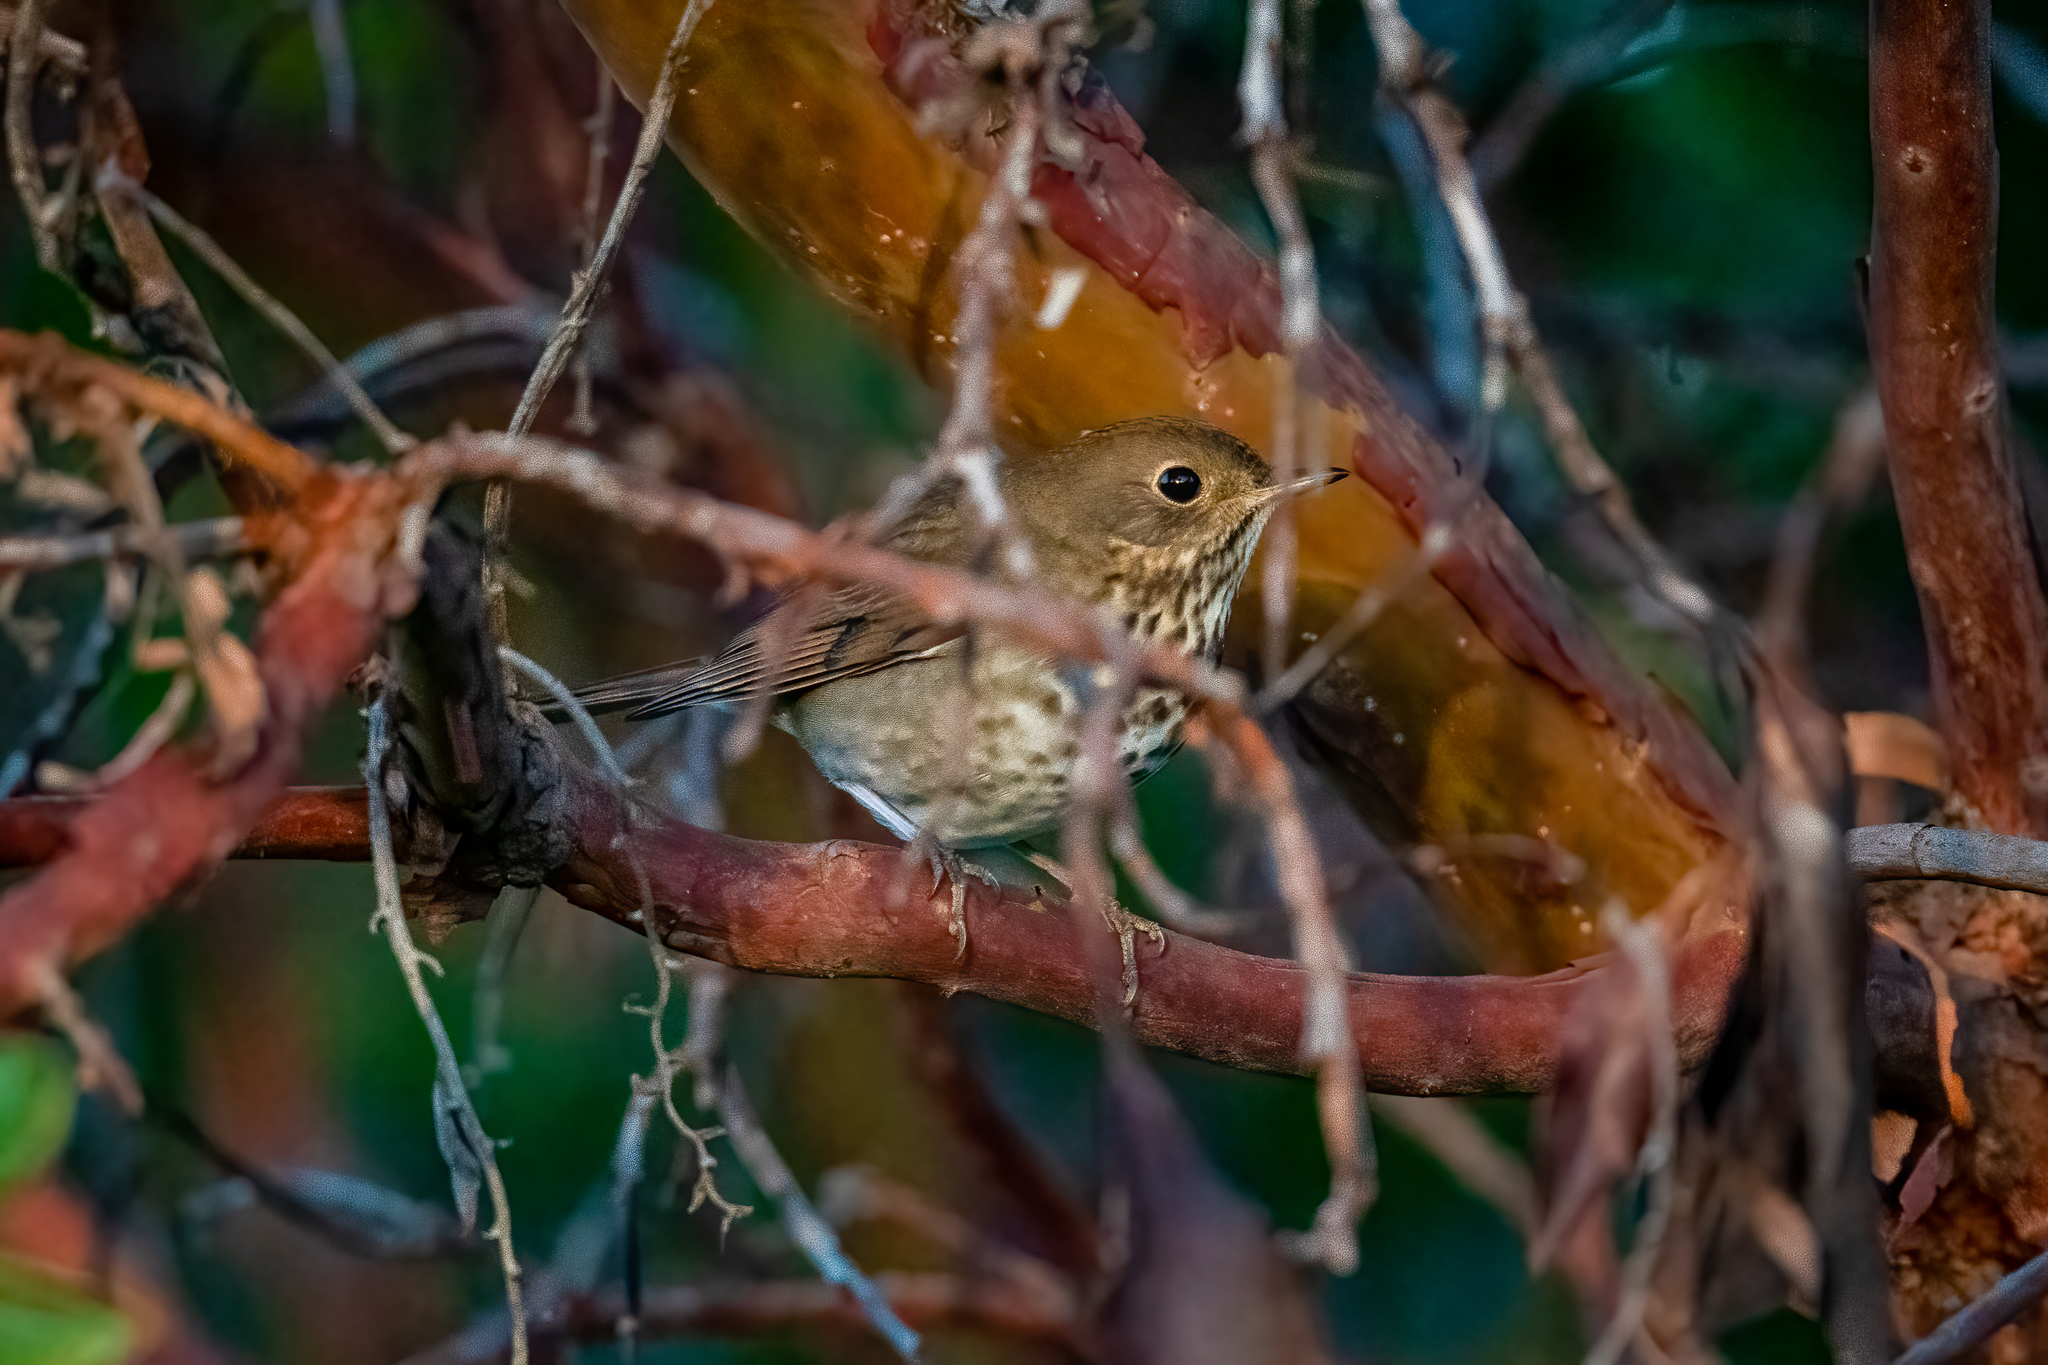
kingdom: Animalia
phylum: Chordata
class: Aves
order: Passeriformes
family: Turdidae
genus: Catharus
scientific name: Catharus guttatus
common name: Hermit thrush
